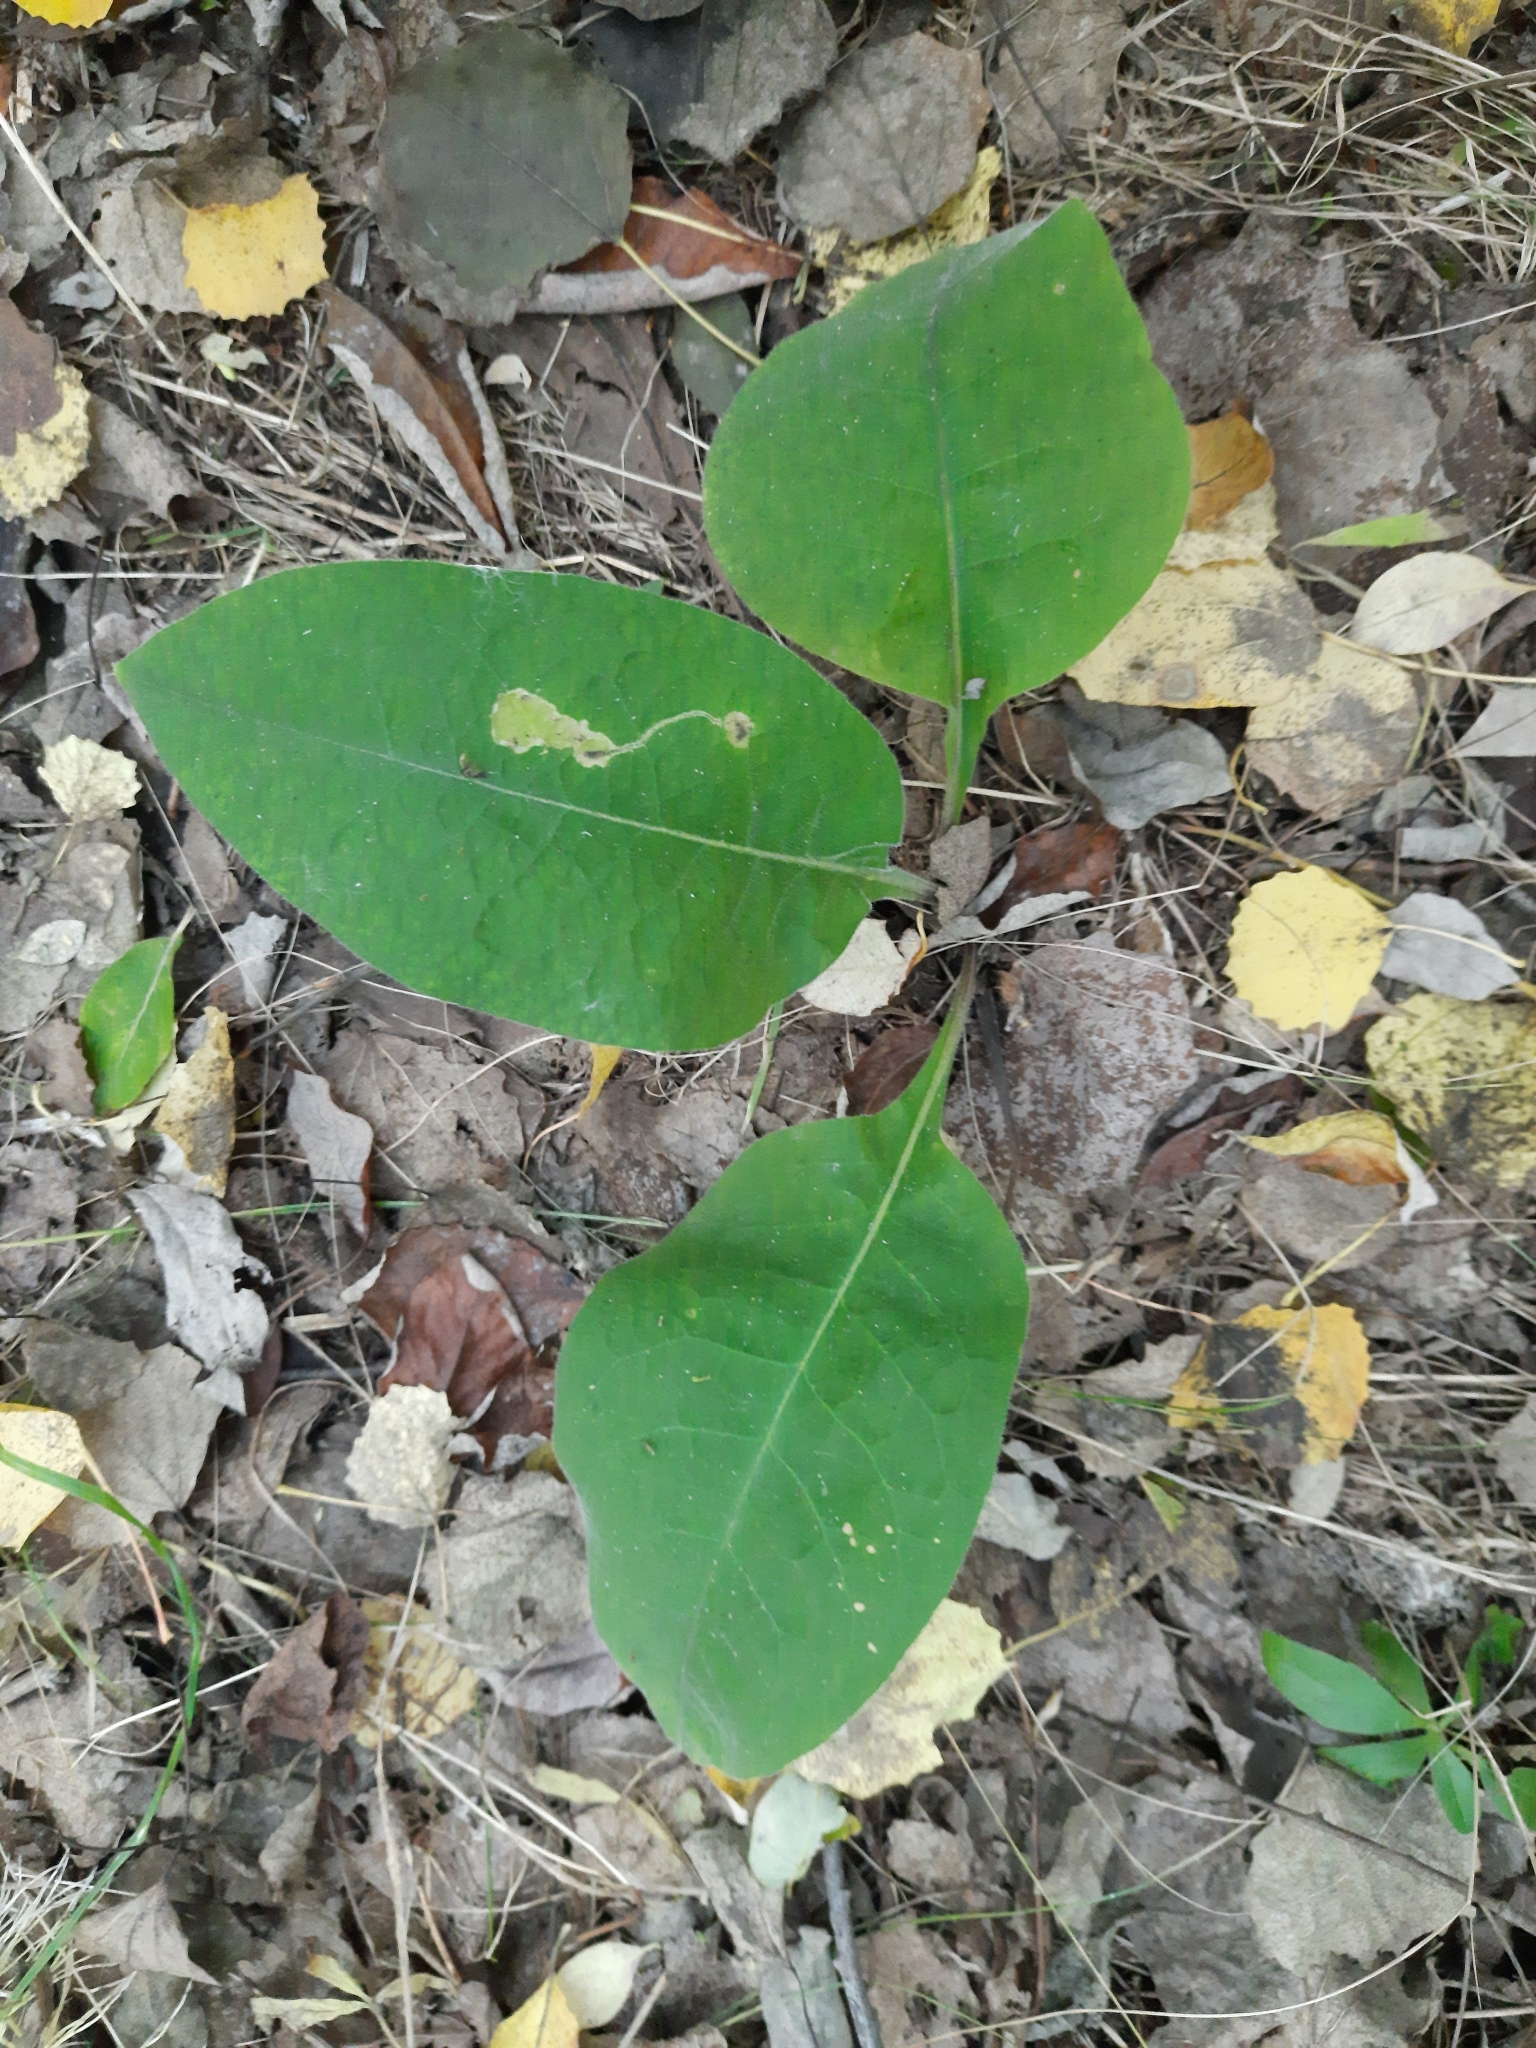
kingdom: Plantae
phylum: Tracheophyta
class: Magnoliopsida
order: Boraginales
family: Boraginaceae
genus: Pulmonaria
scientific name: Pulmonaria mollis
